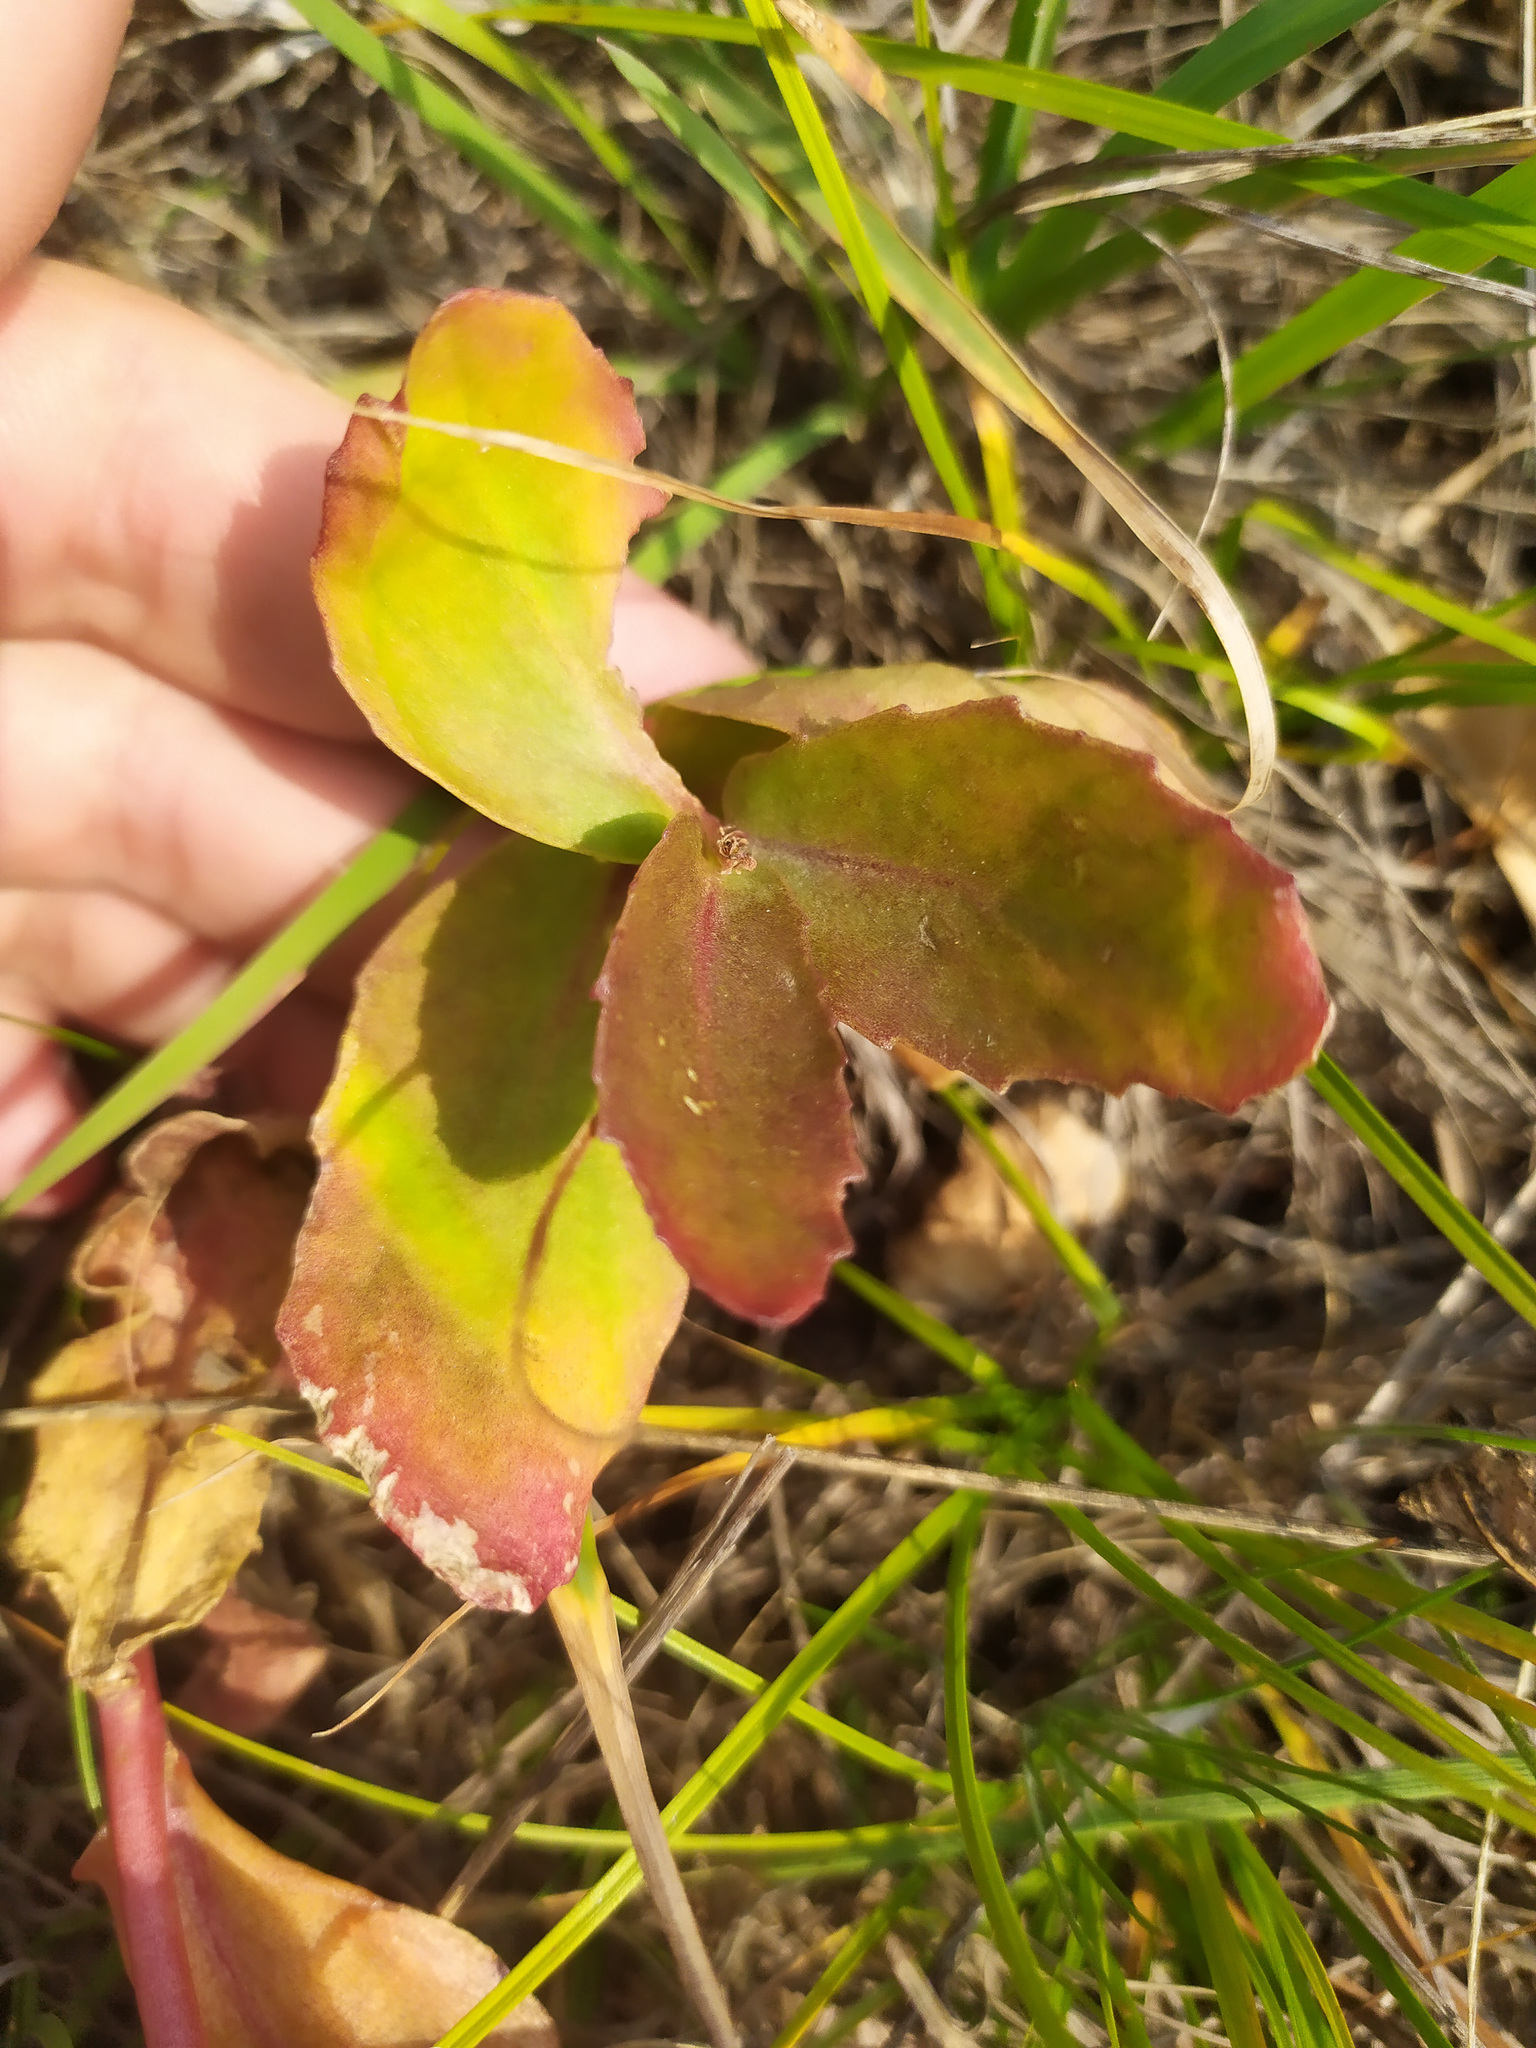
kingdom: Plantae
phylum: Tracheophyta
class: Magnoliopsida
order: Saxifragales
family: Crassulaceae
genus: Hylotelephium
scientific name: Hylotelephium telephium
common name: Live-forever
